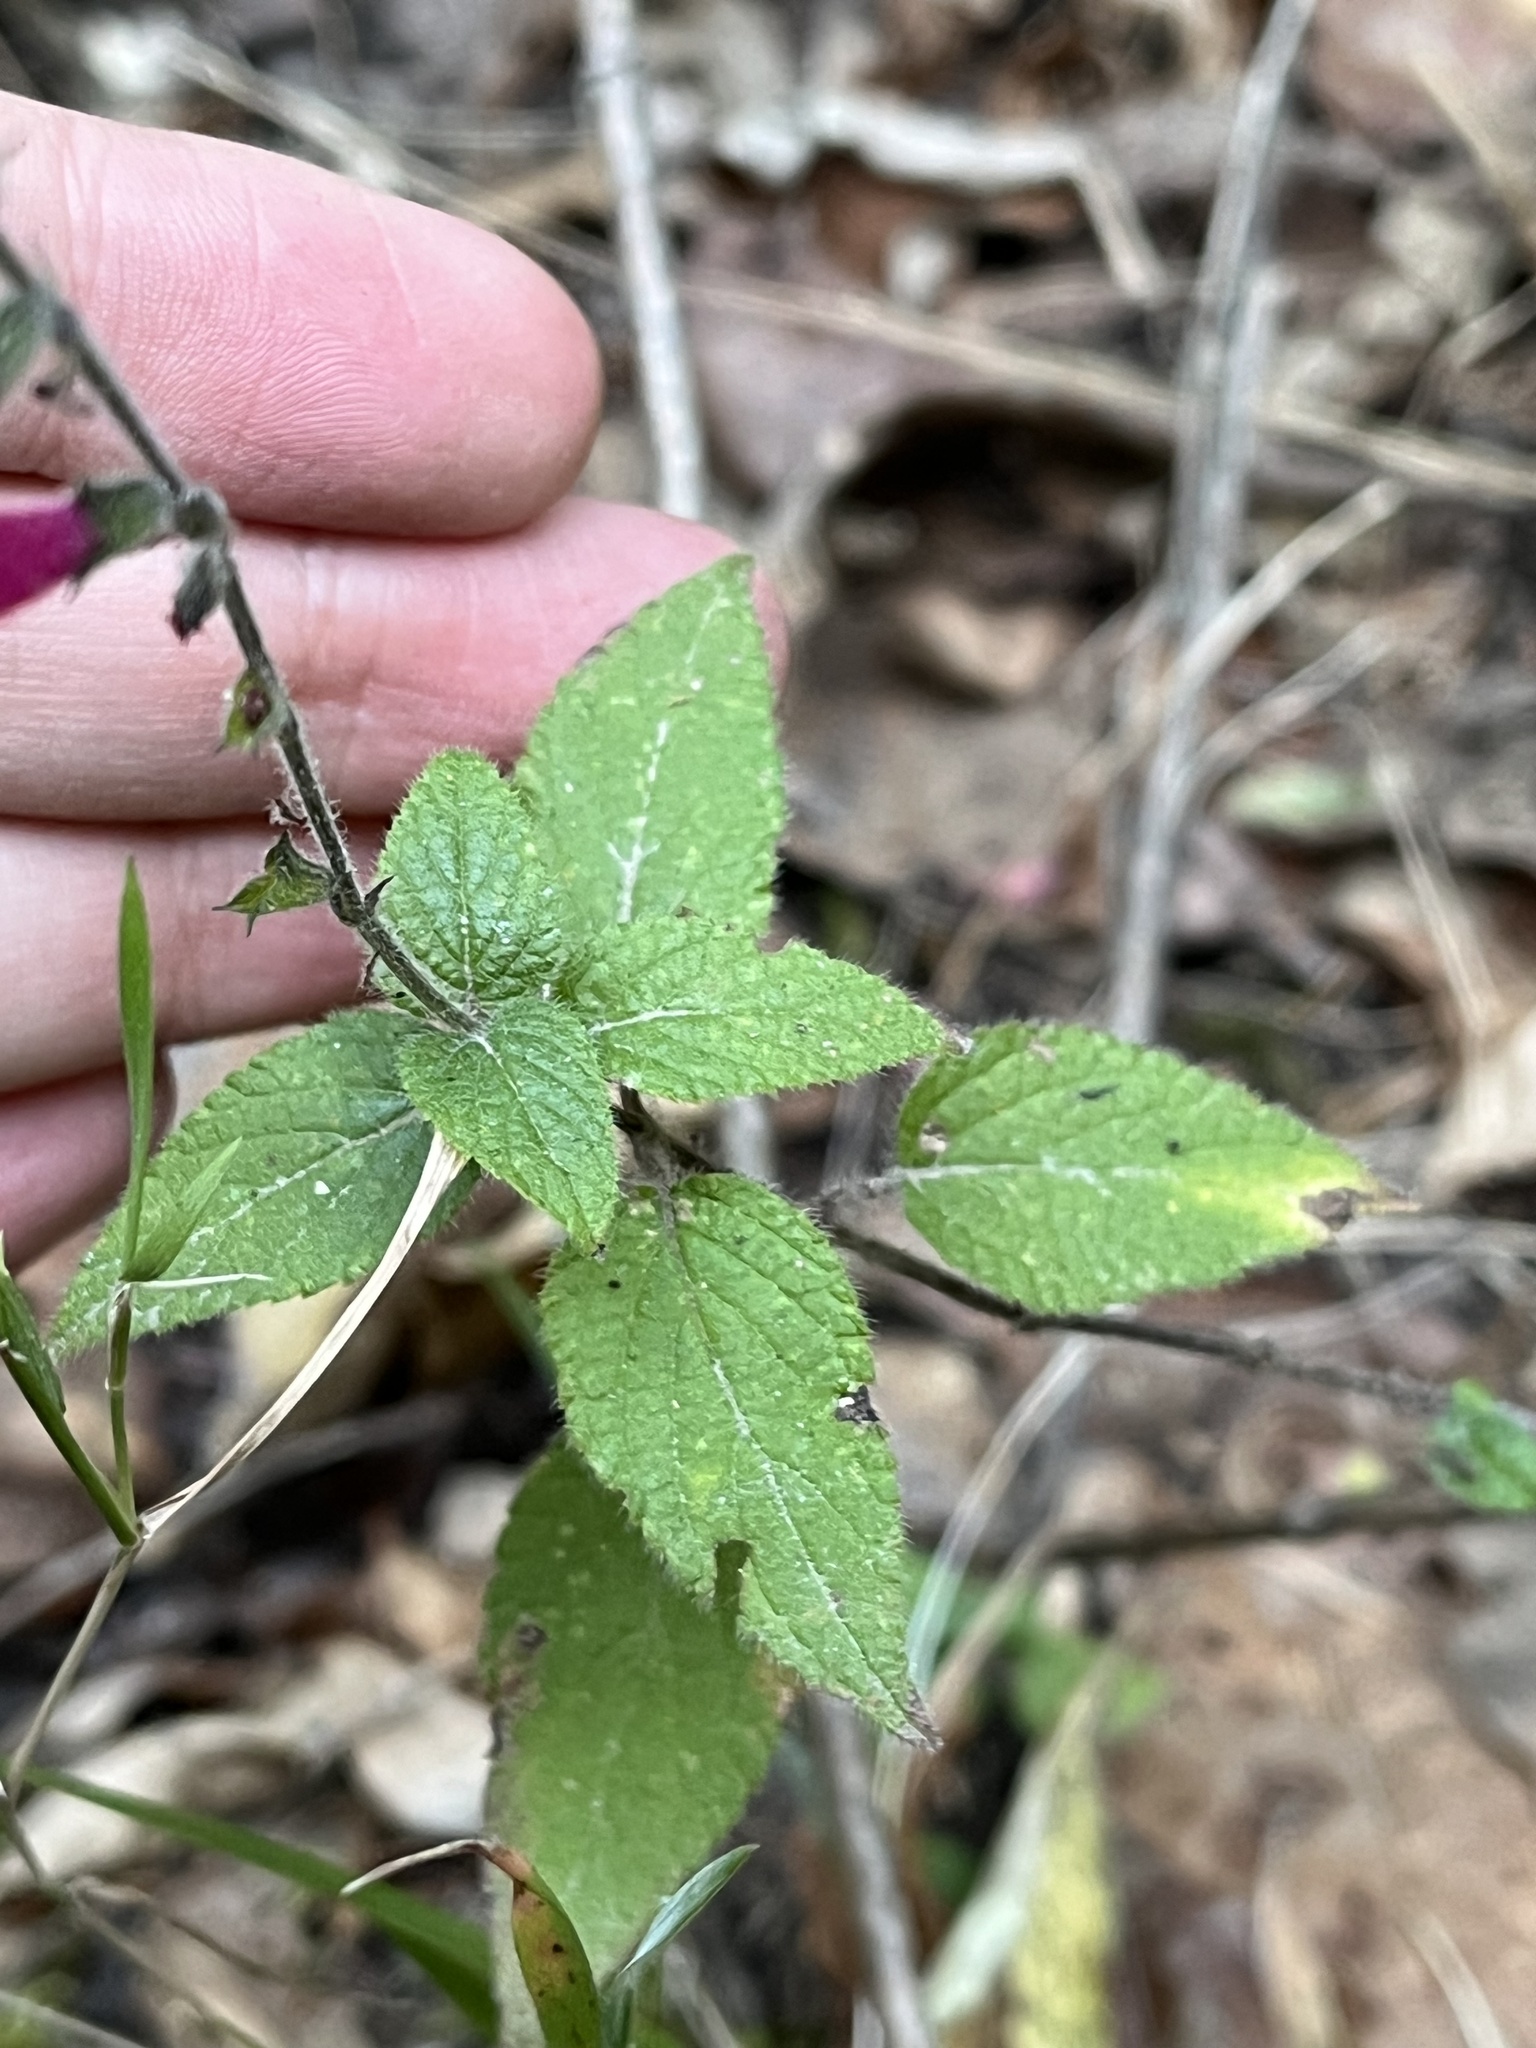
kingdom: Plantae
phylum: Tracheophyta
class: Magnoliopsida
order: Lamiales
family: Lamiaceae
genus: Salvia
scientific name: Salvia elegans
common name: Pineapple sage
